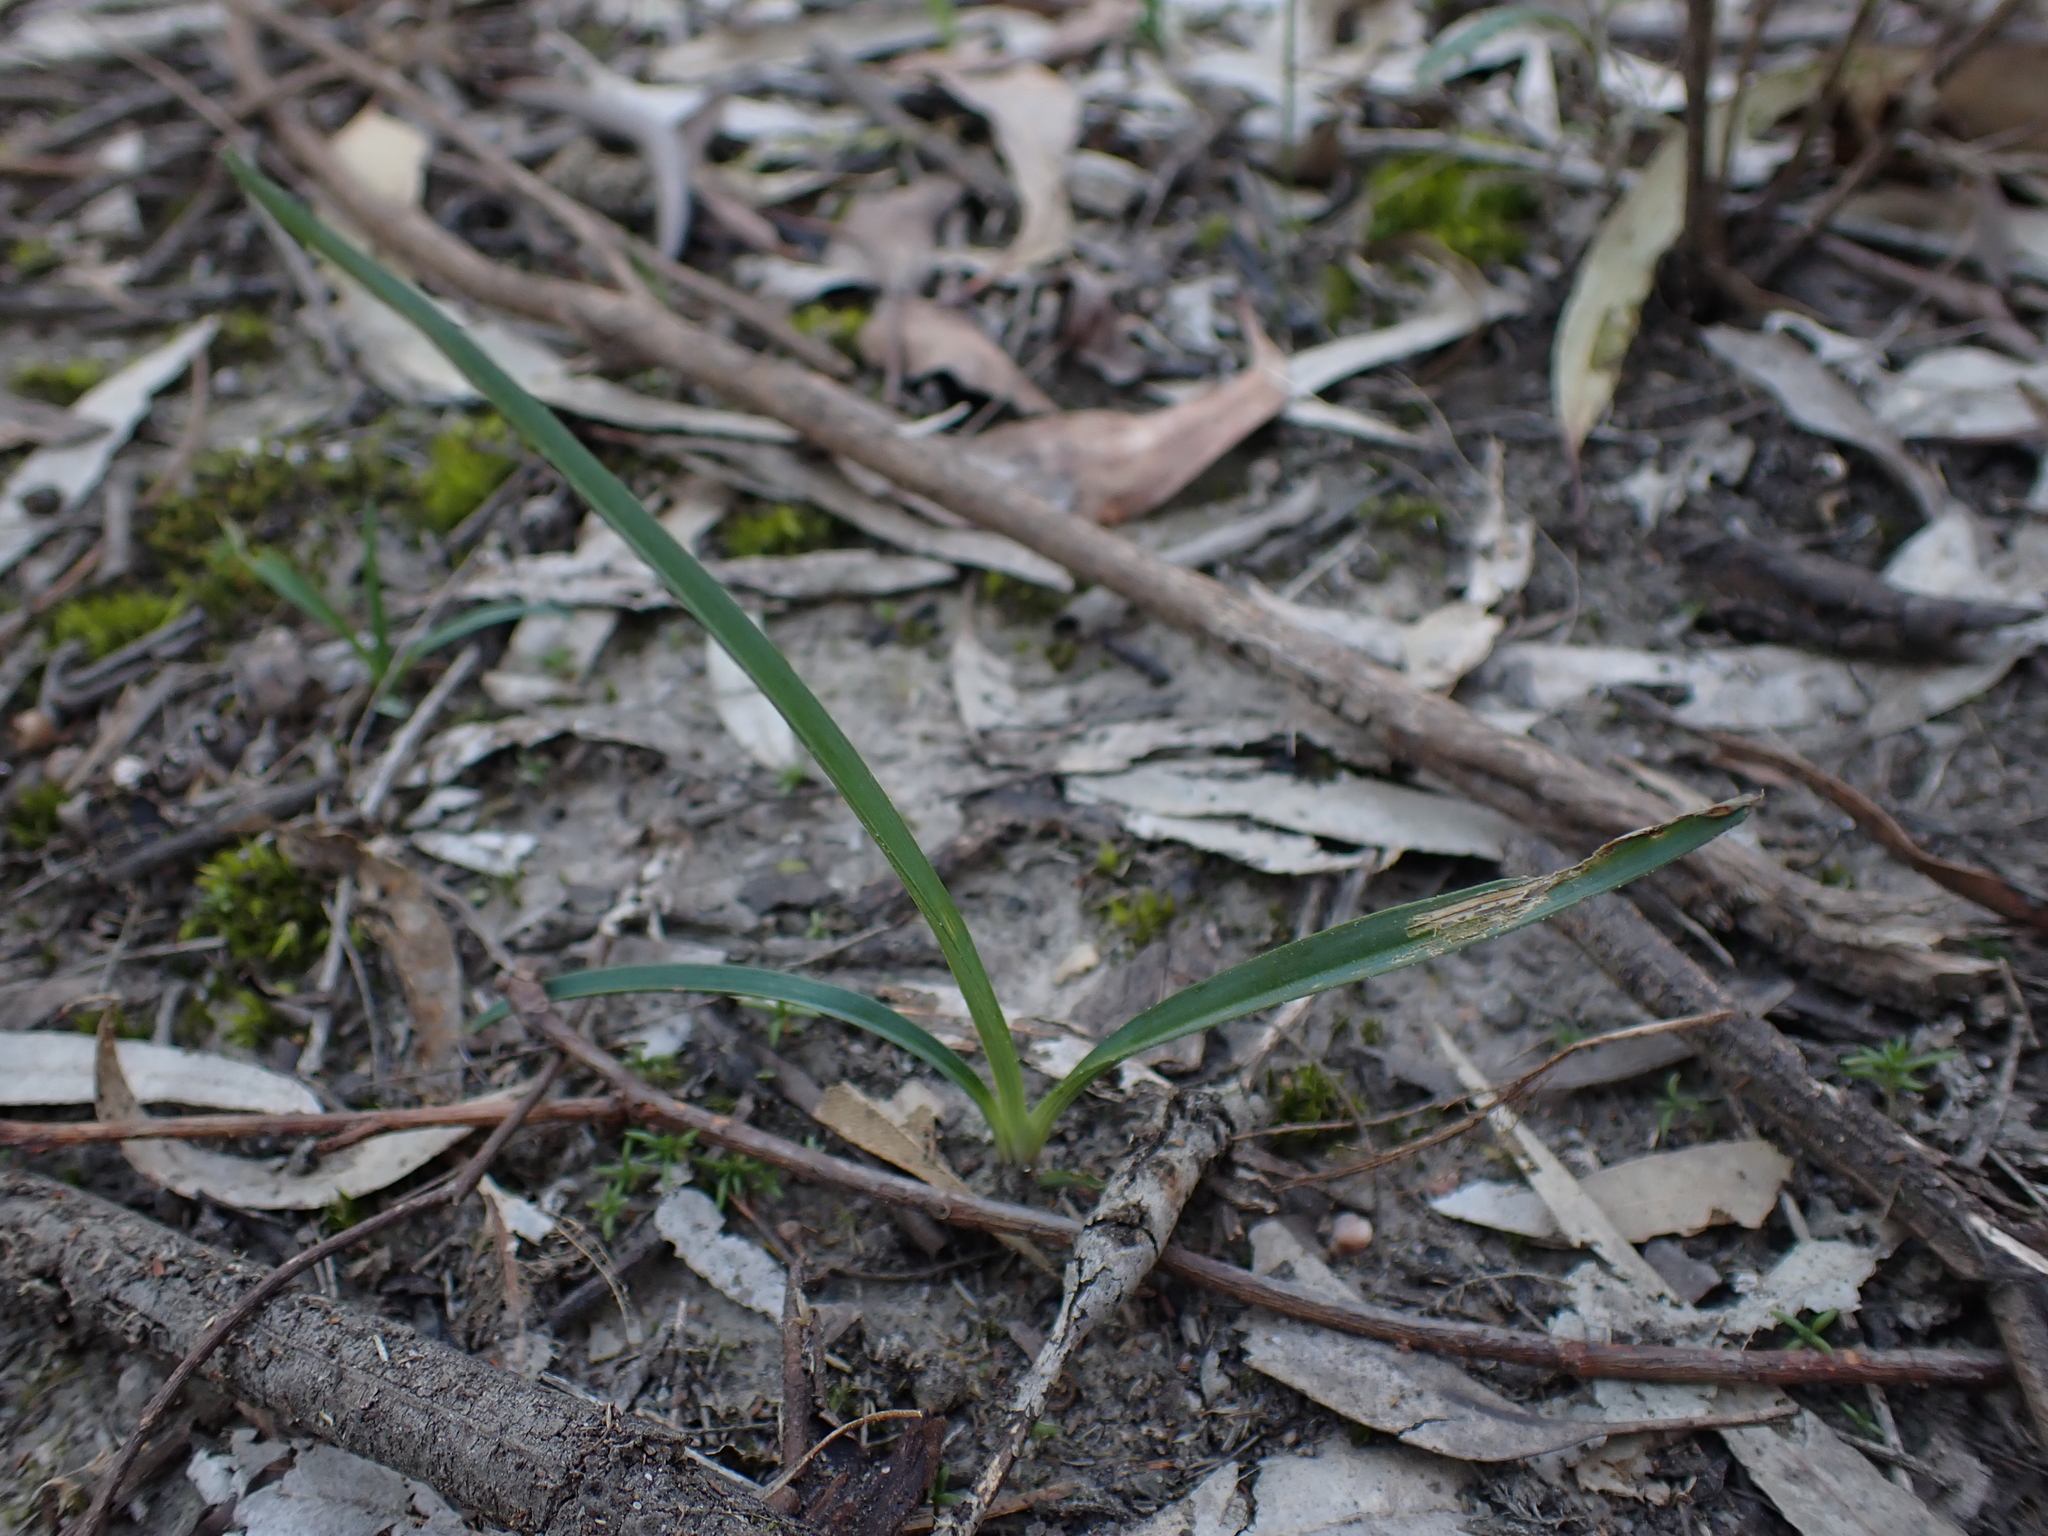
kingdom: Plantae
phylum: Tracheophyta
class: Liliopsida
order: Asparagales
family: Asphodelaceae
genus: Dianella
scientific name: Dianella amoena
